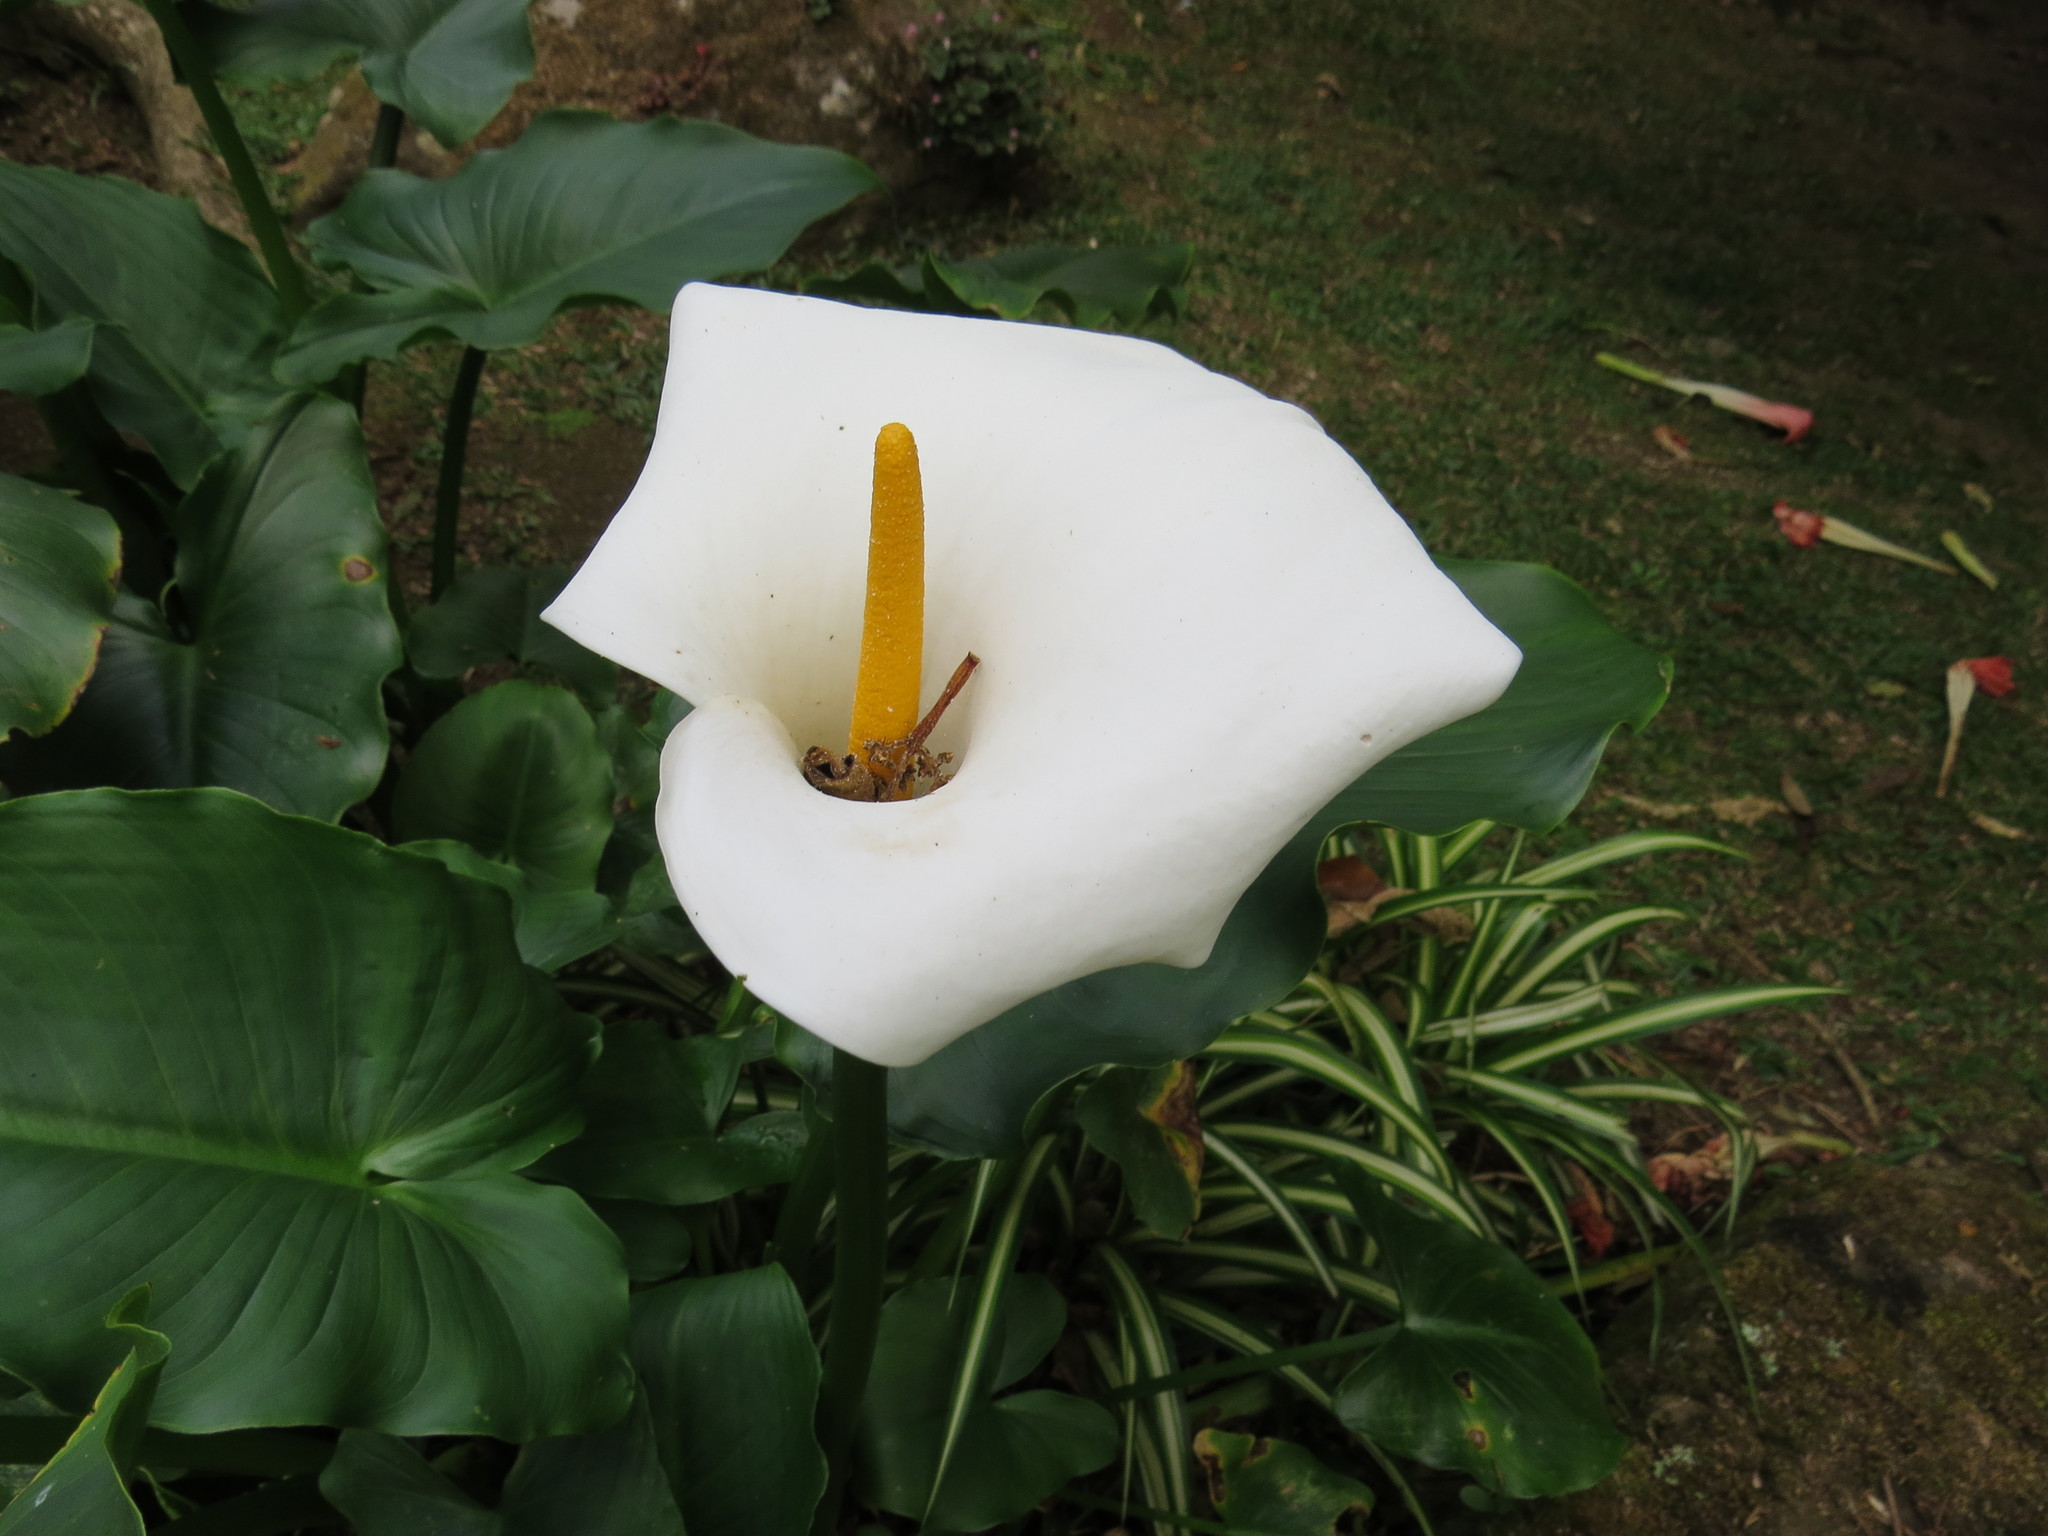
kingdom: Plantae
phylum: Tracheophyta
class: Liliopsida
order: Alismatales
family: Araceae
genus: Zantedeschia
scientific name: Zantedeschia aethiopica
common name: Altar-lily
